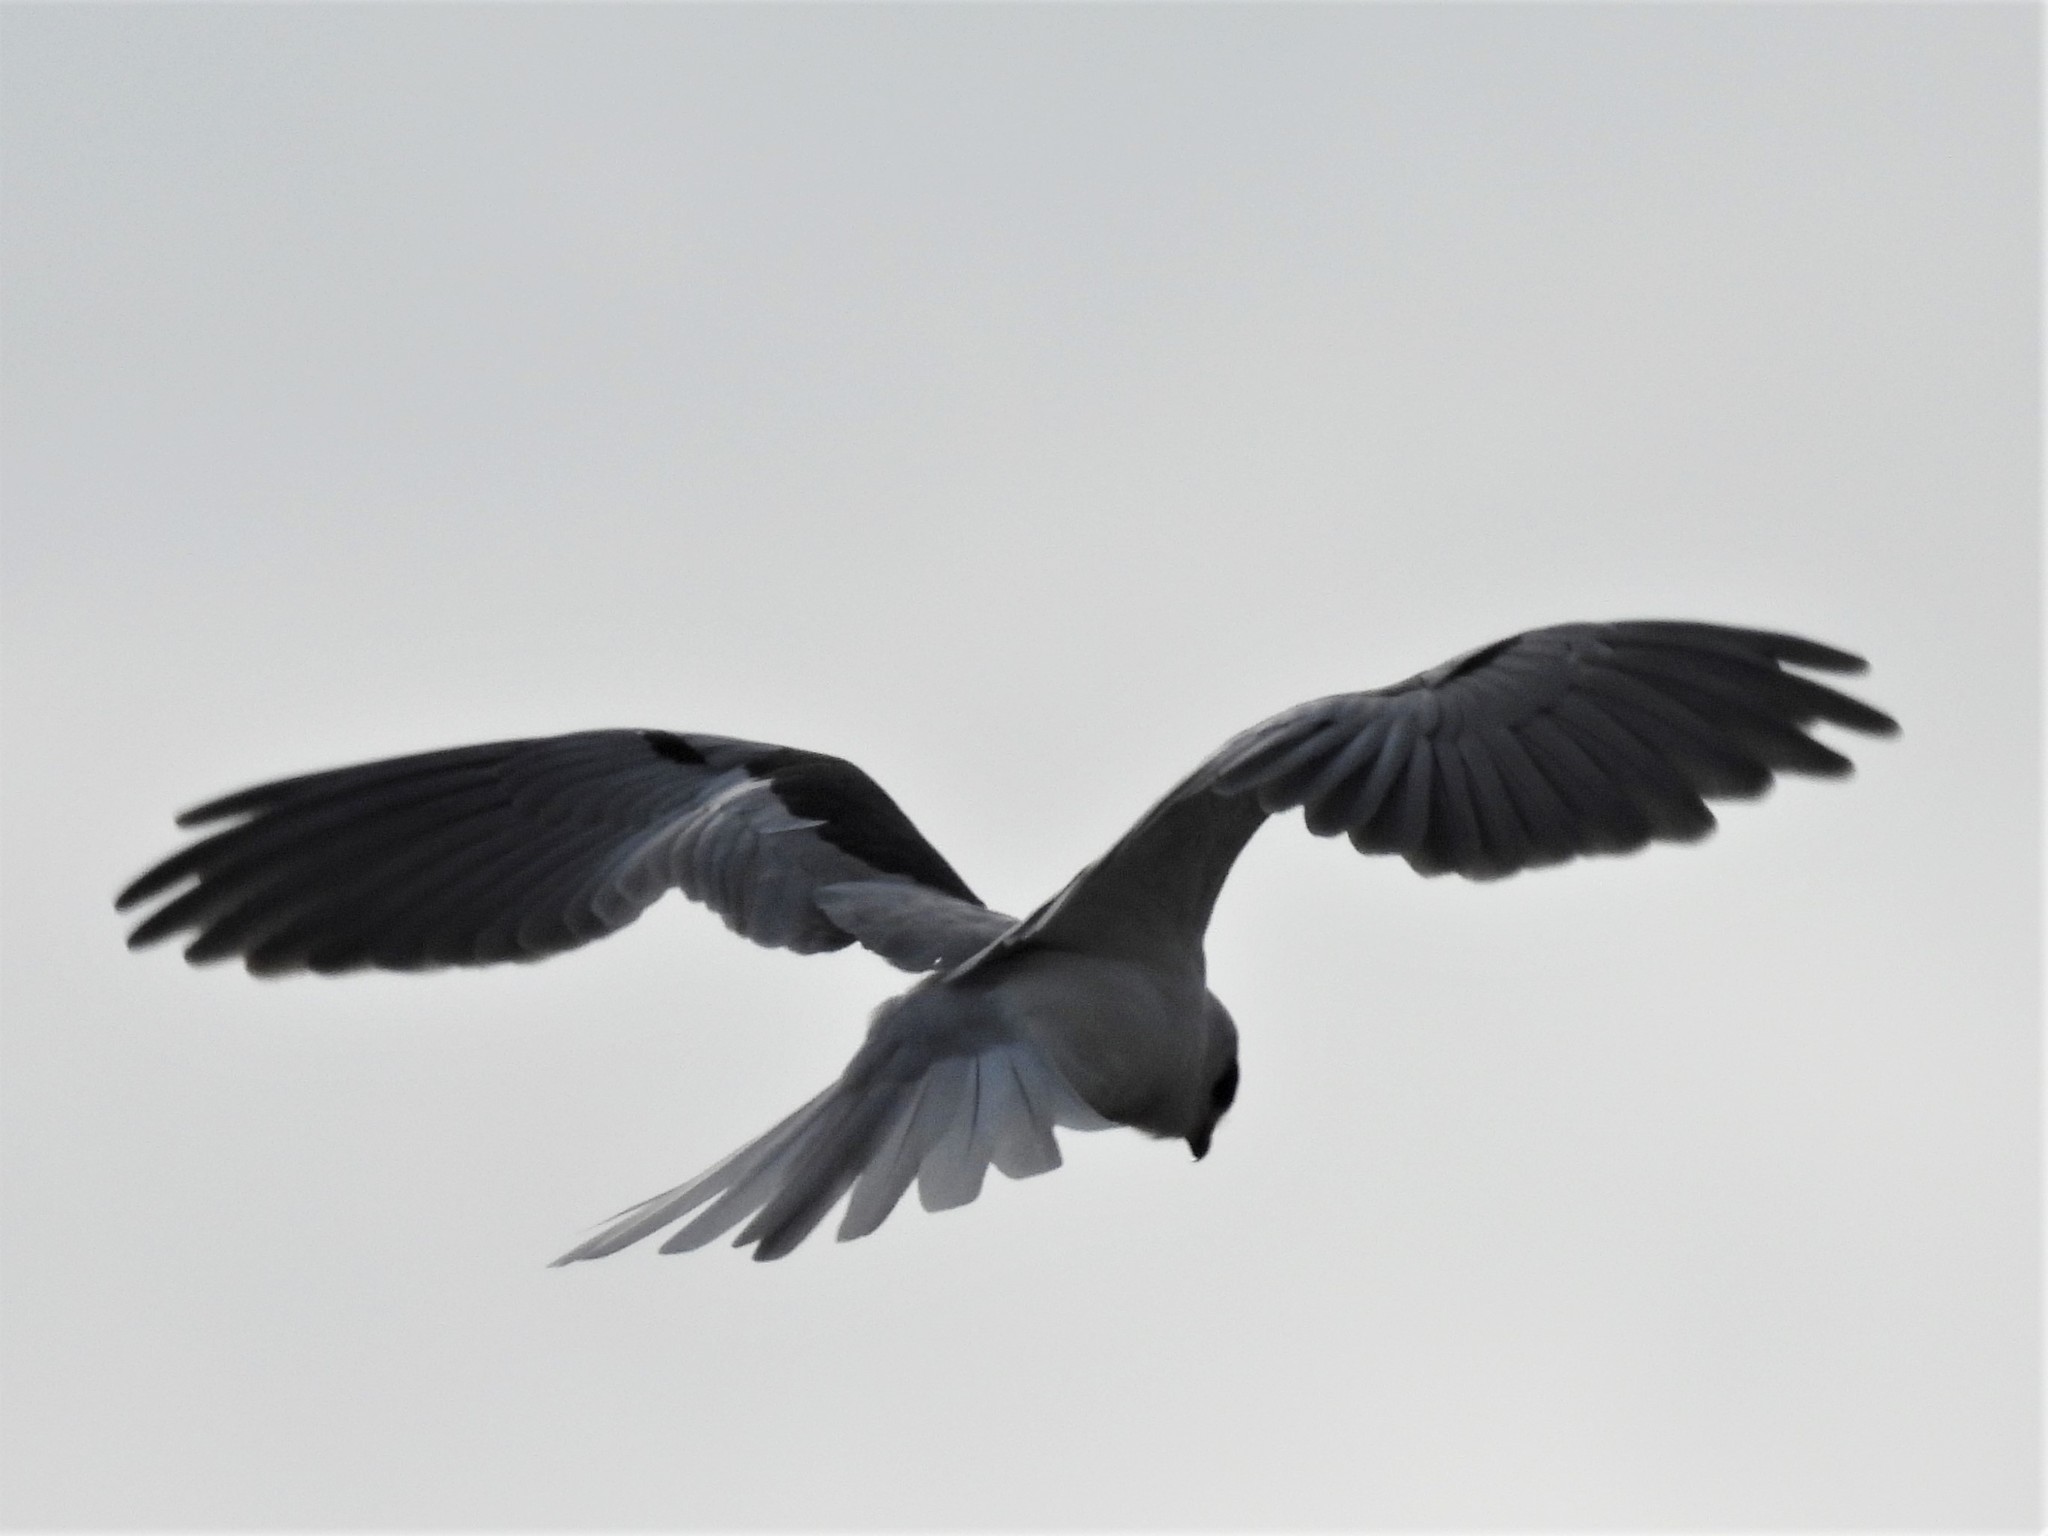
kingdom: Animalia
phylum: Chordata
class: Aves
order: Accipitriformes
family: Accipitridae
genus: Elanus
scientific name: Elanus leucurus
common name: White-tailed kite
